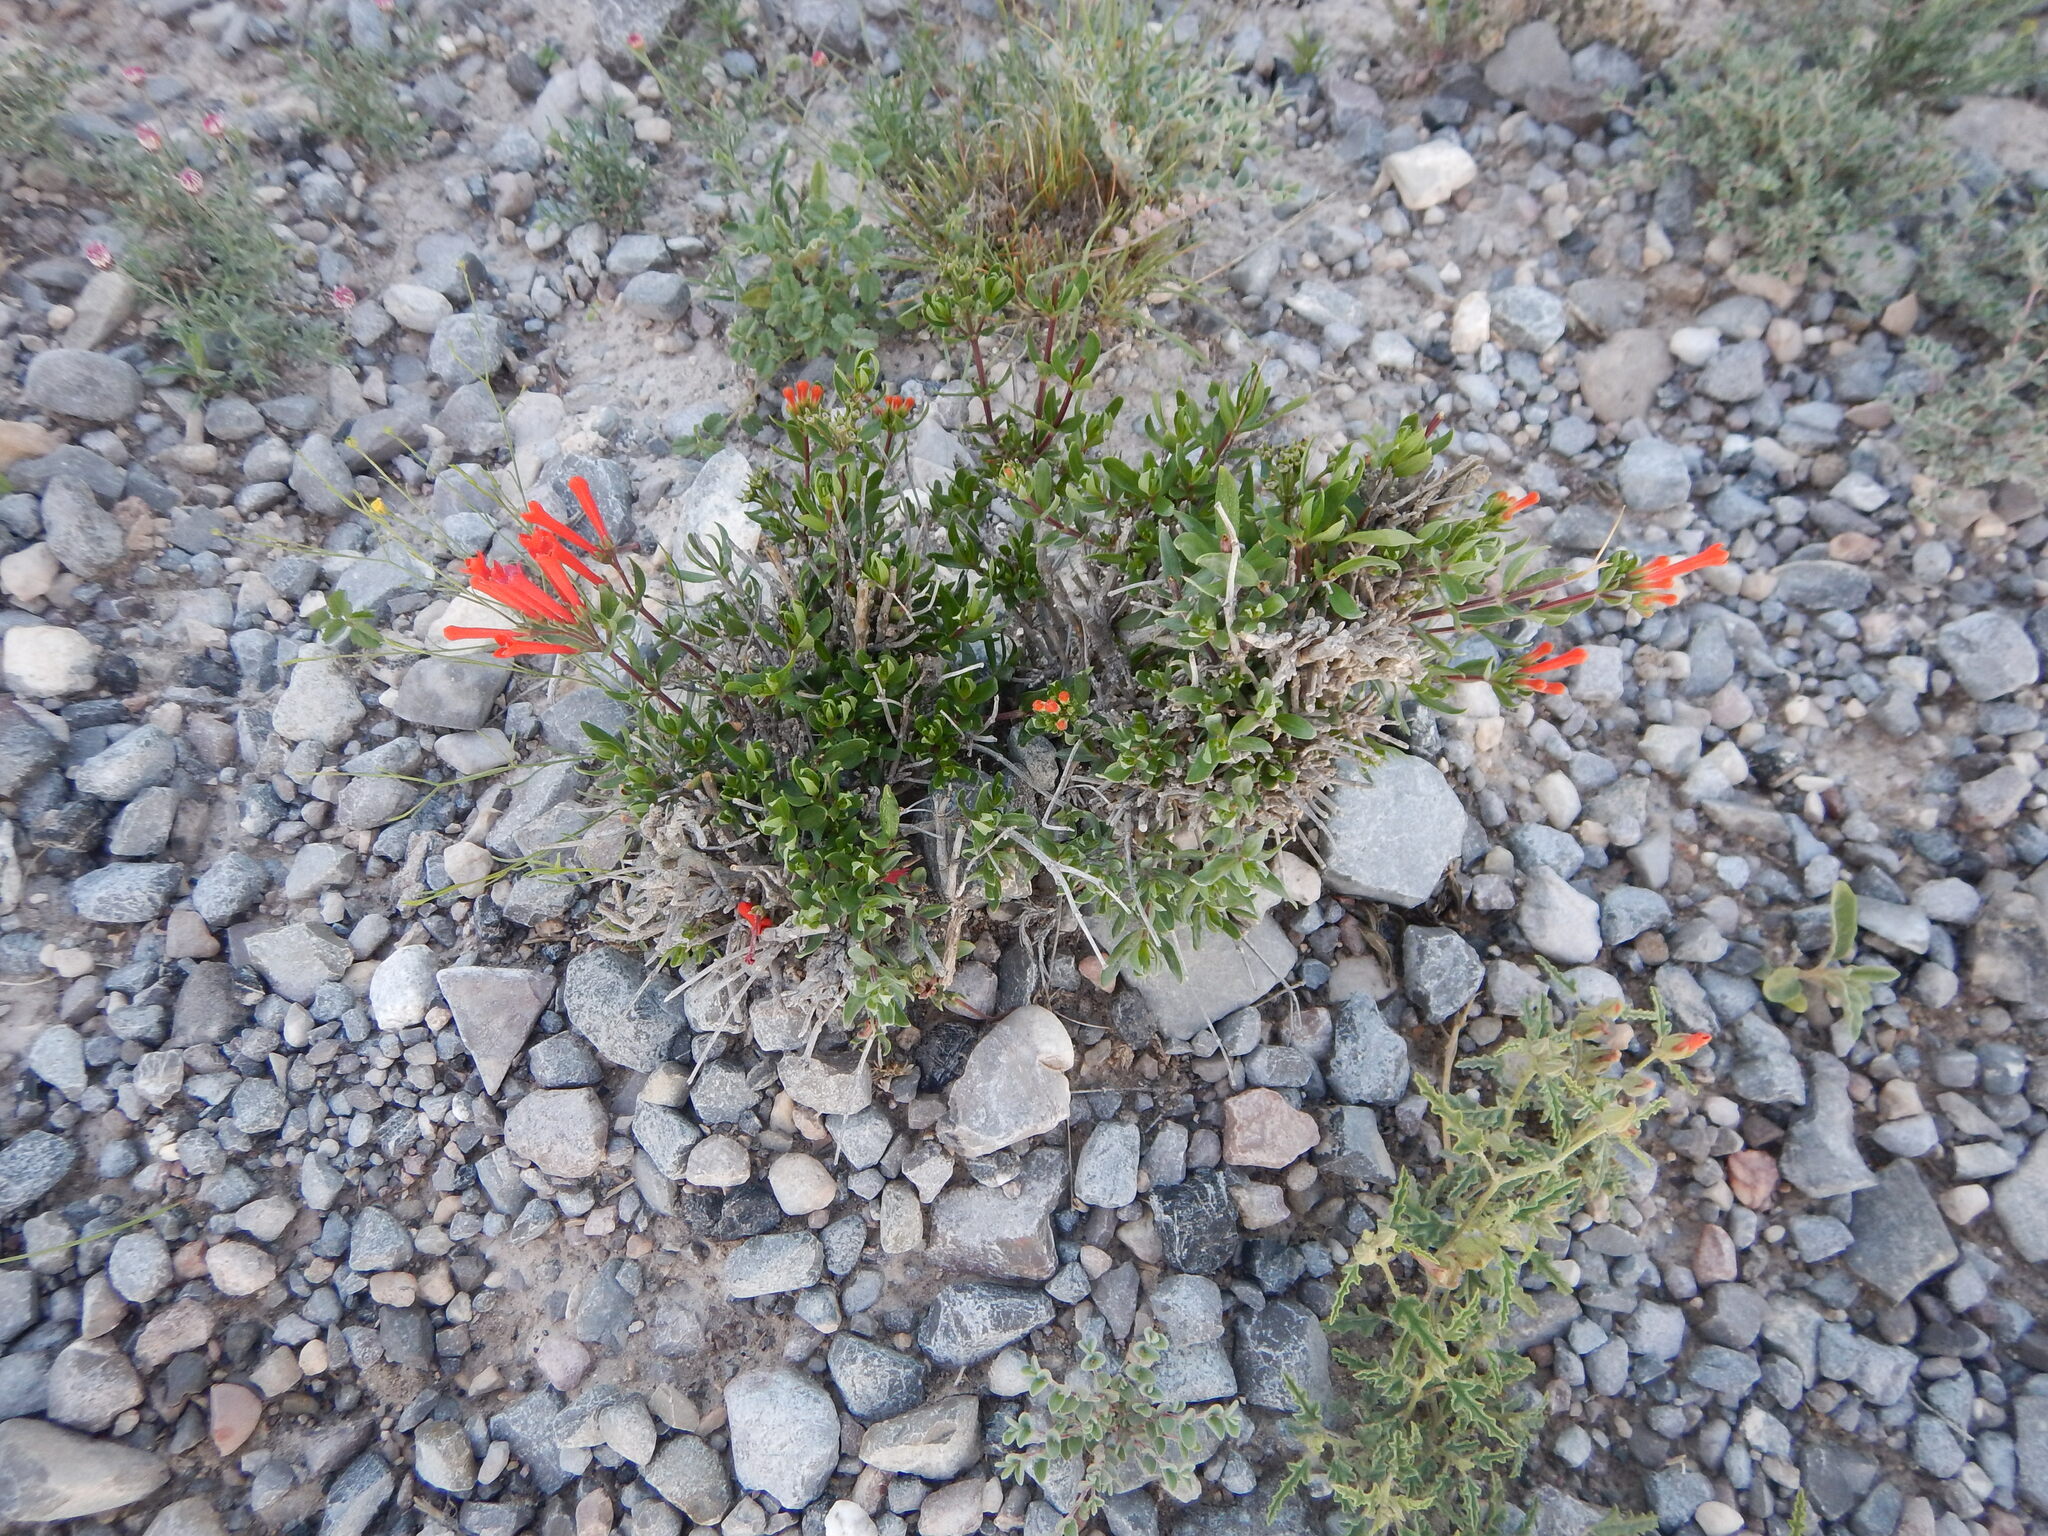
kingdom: Plantae
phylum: Tracheophyta
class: Magnoliopsida
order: Gentianales
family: Rubiaceae
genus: Bouvardia
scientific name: Bouvardia ternifolia
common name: Scarlet bouvardia
